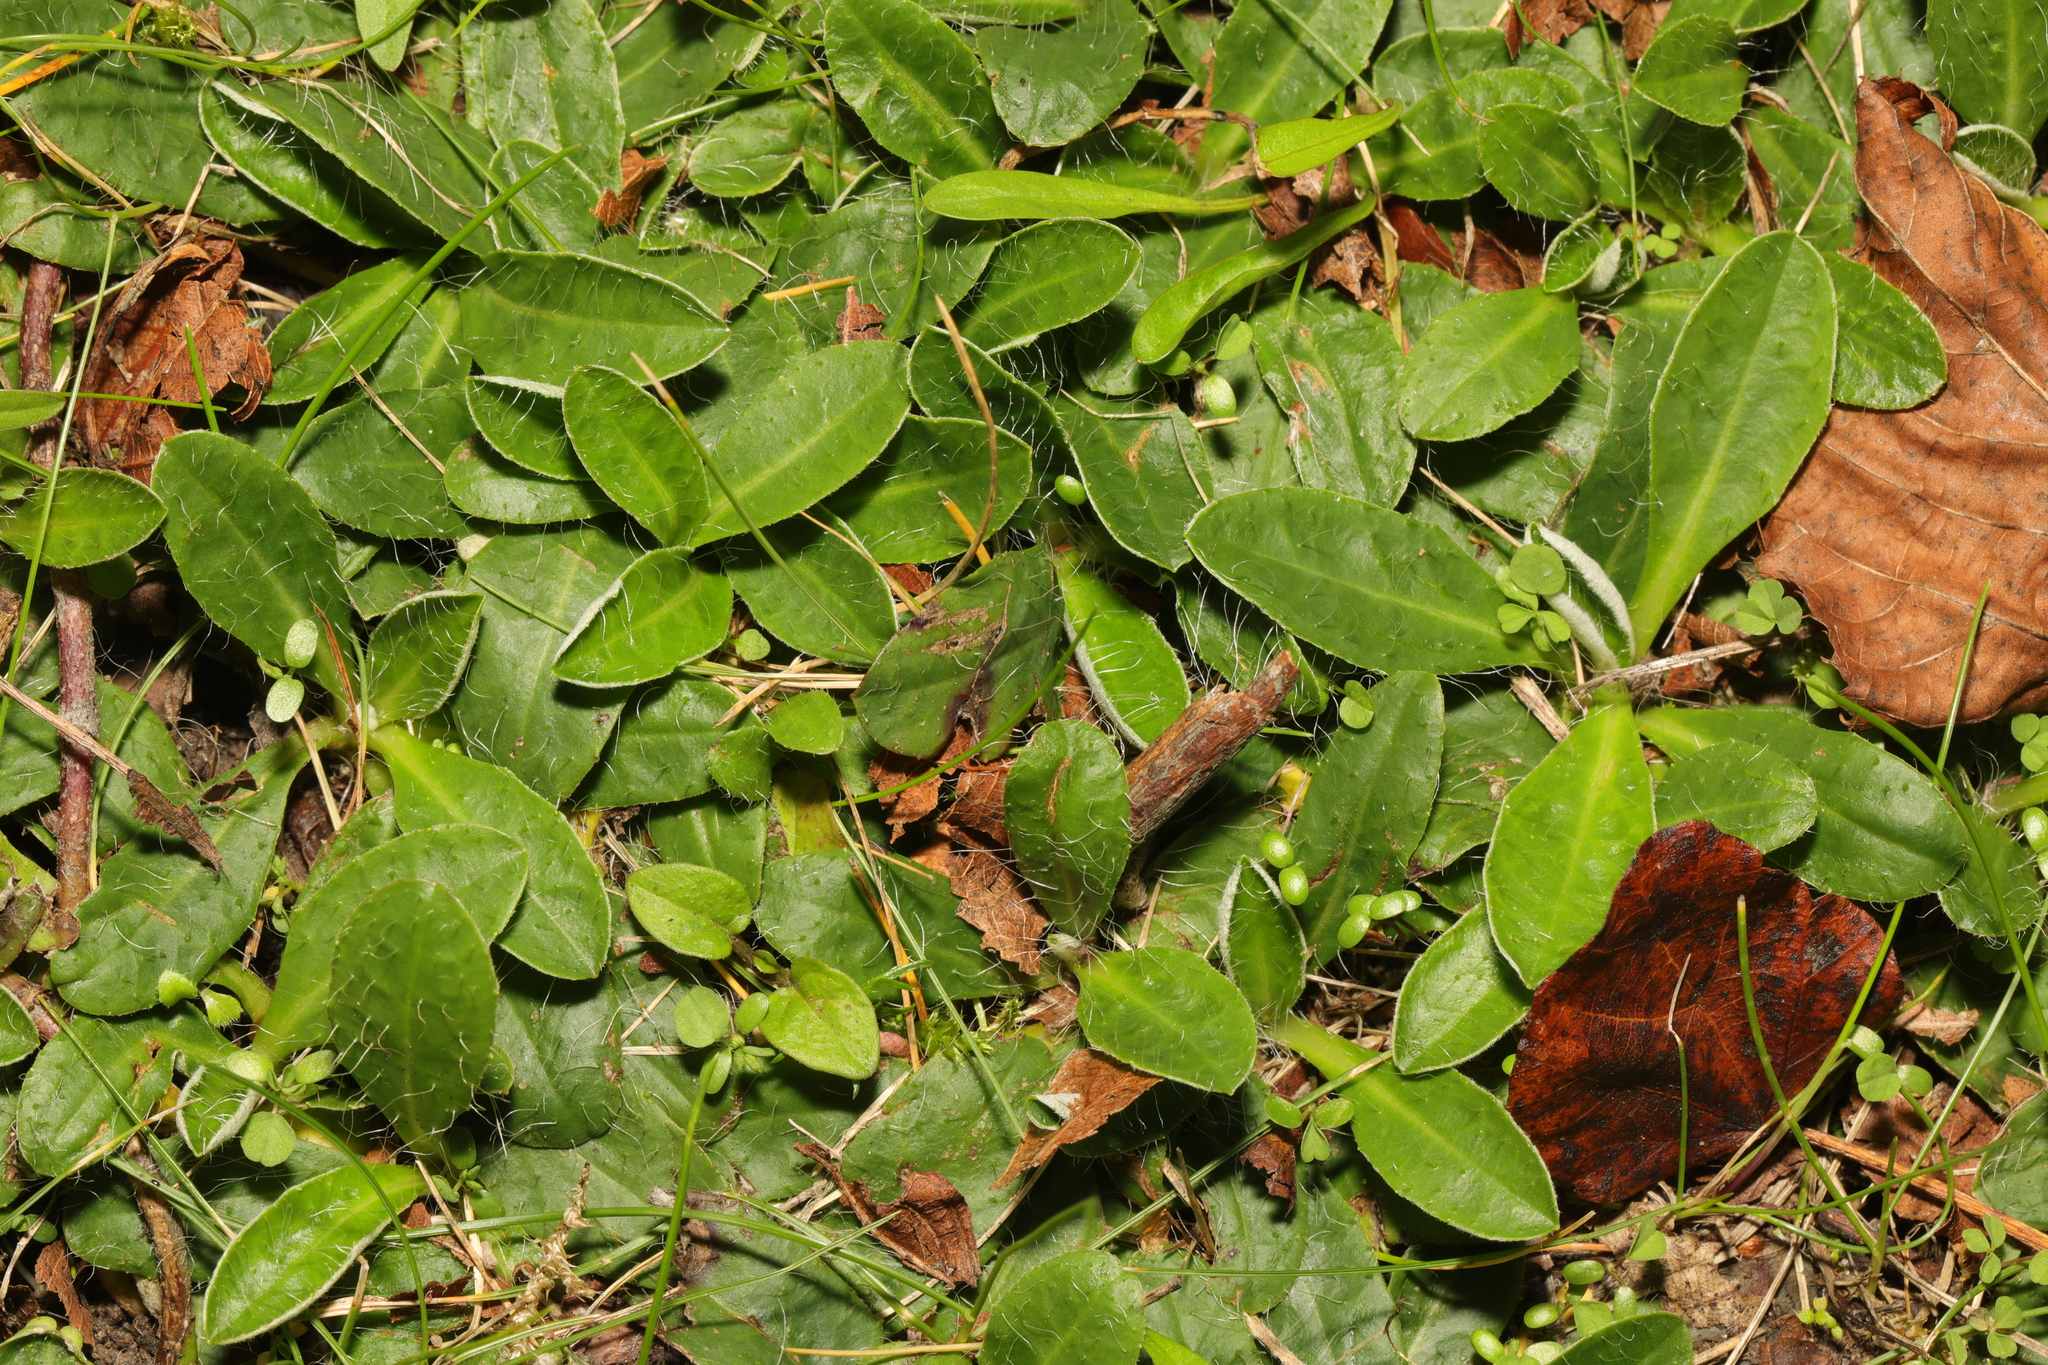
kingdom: Plantae
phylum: Tracheophyta
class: Magnoliopsida
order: Asterales
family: Asteraceae
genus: Pilosella
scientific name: Pilosella officinarum
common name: Mouse-ear hawkweed
